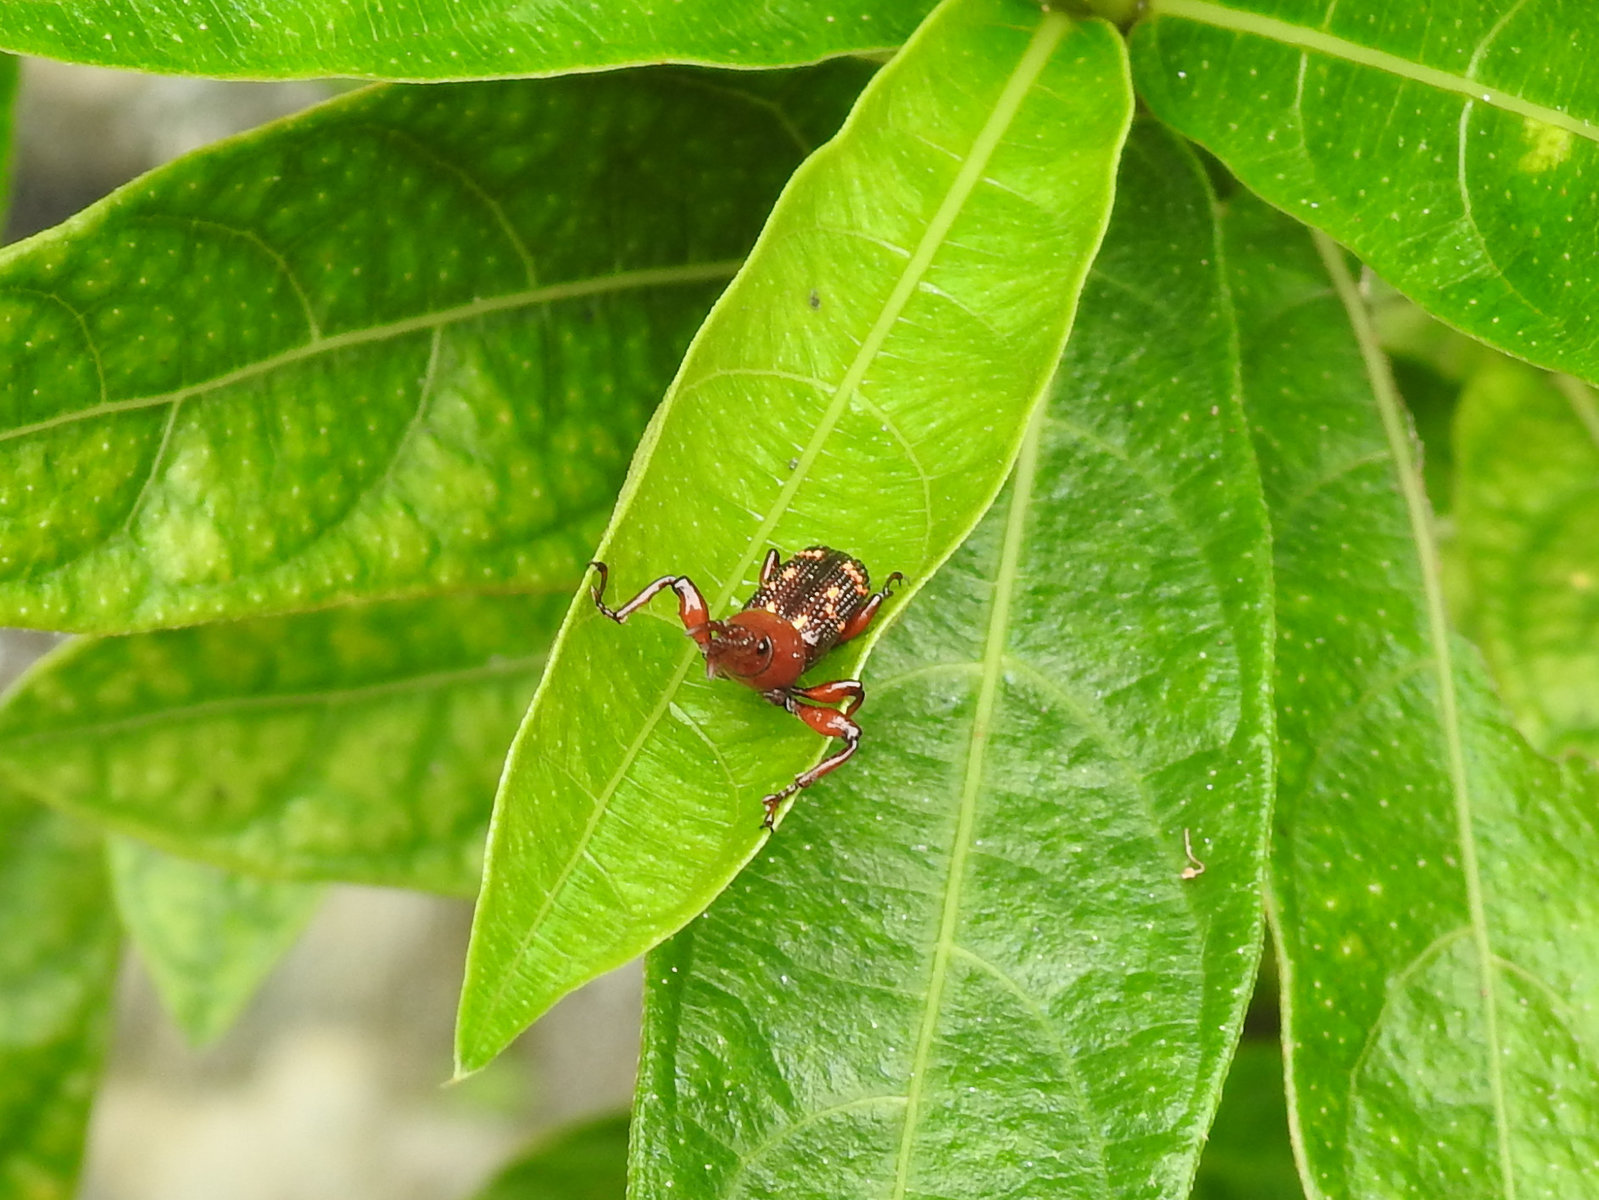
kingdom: Animalia
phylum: Arthropoda
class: Insecta
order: Coleoptera
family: Brentidae
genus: Baryrhynchus
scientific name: Baryrhynchus miles
